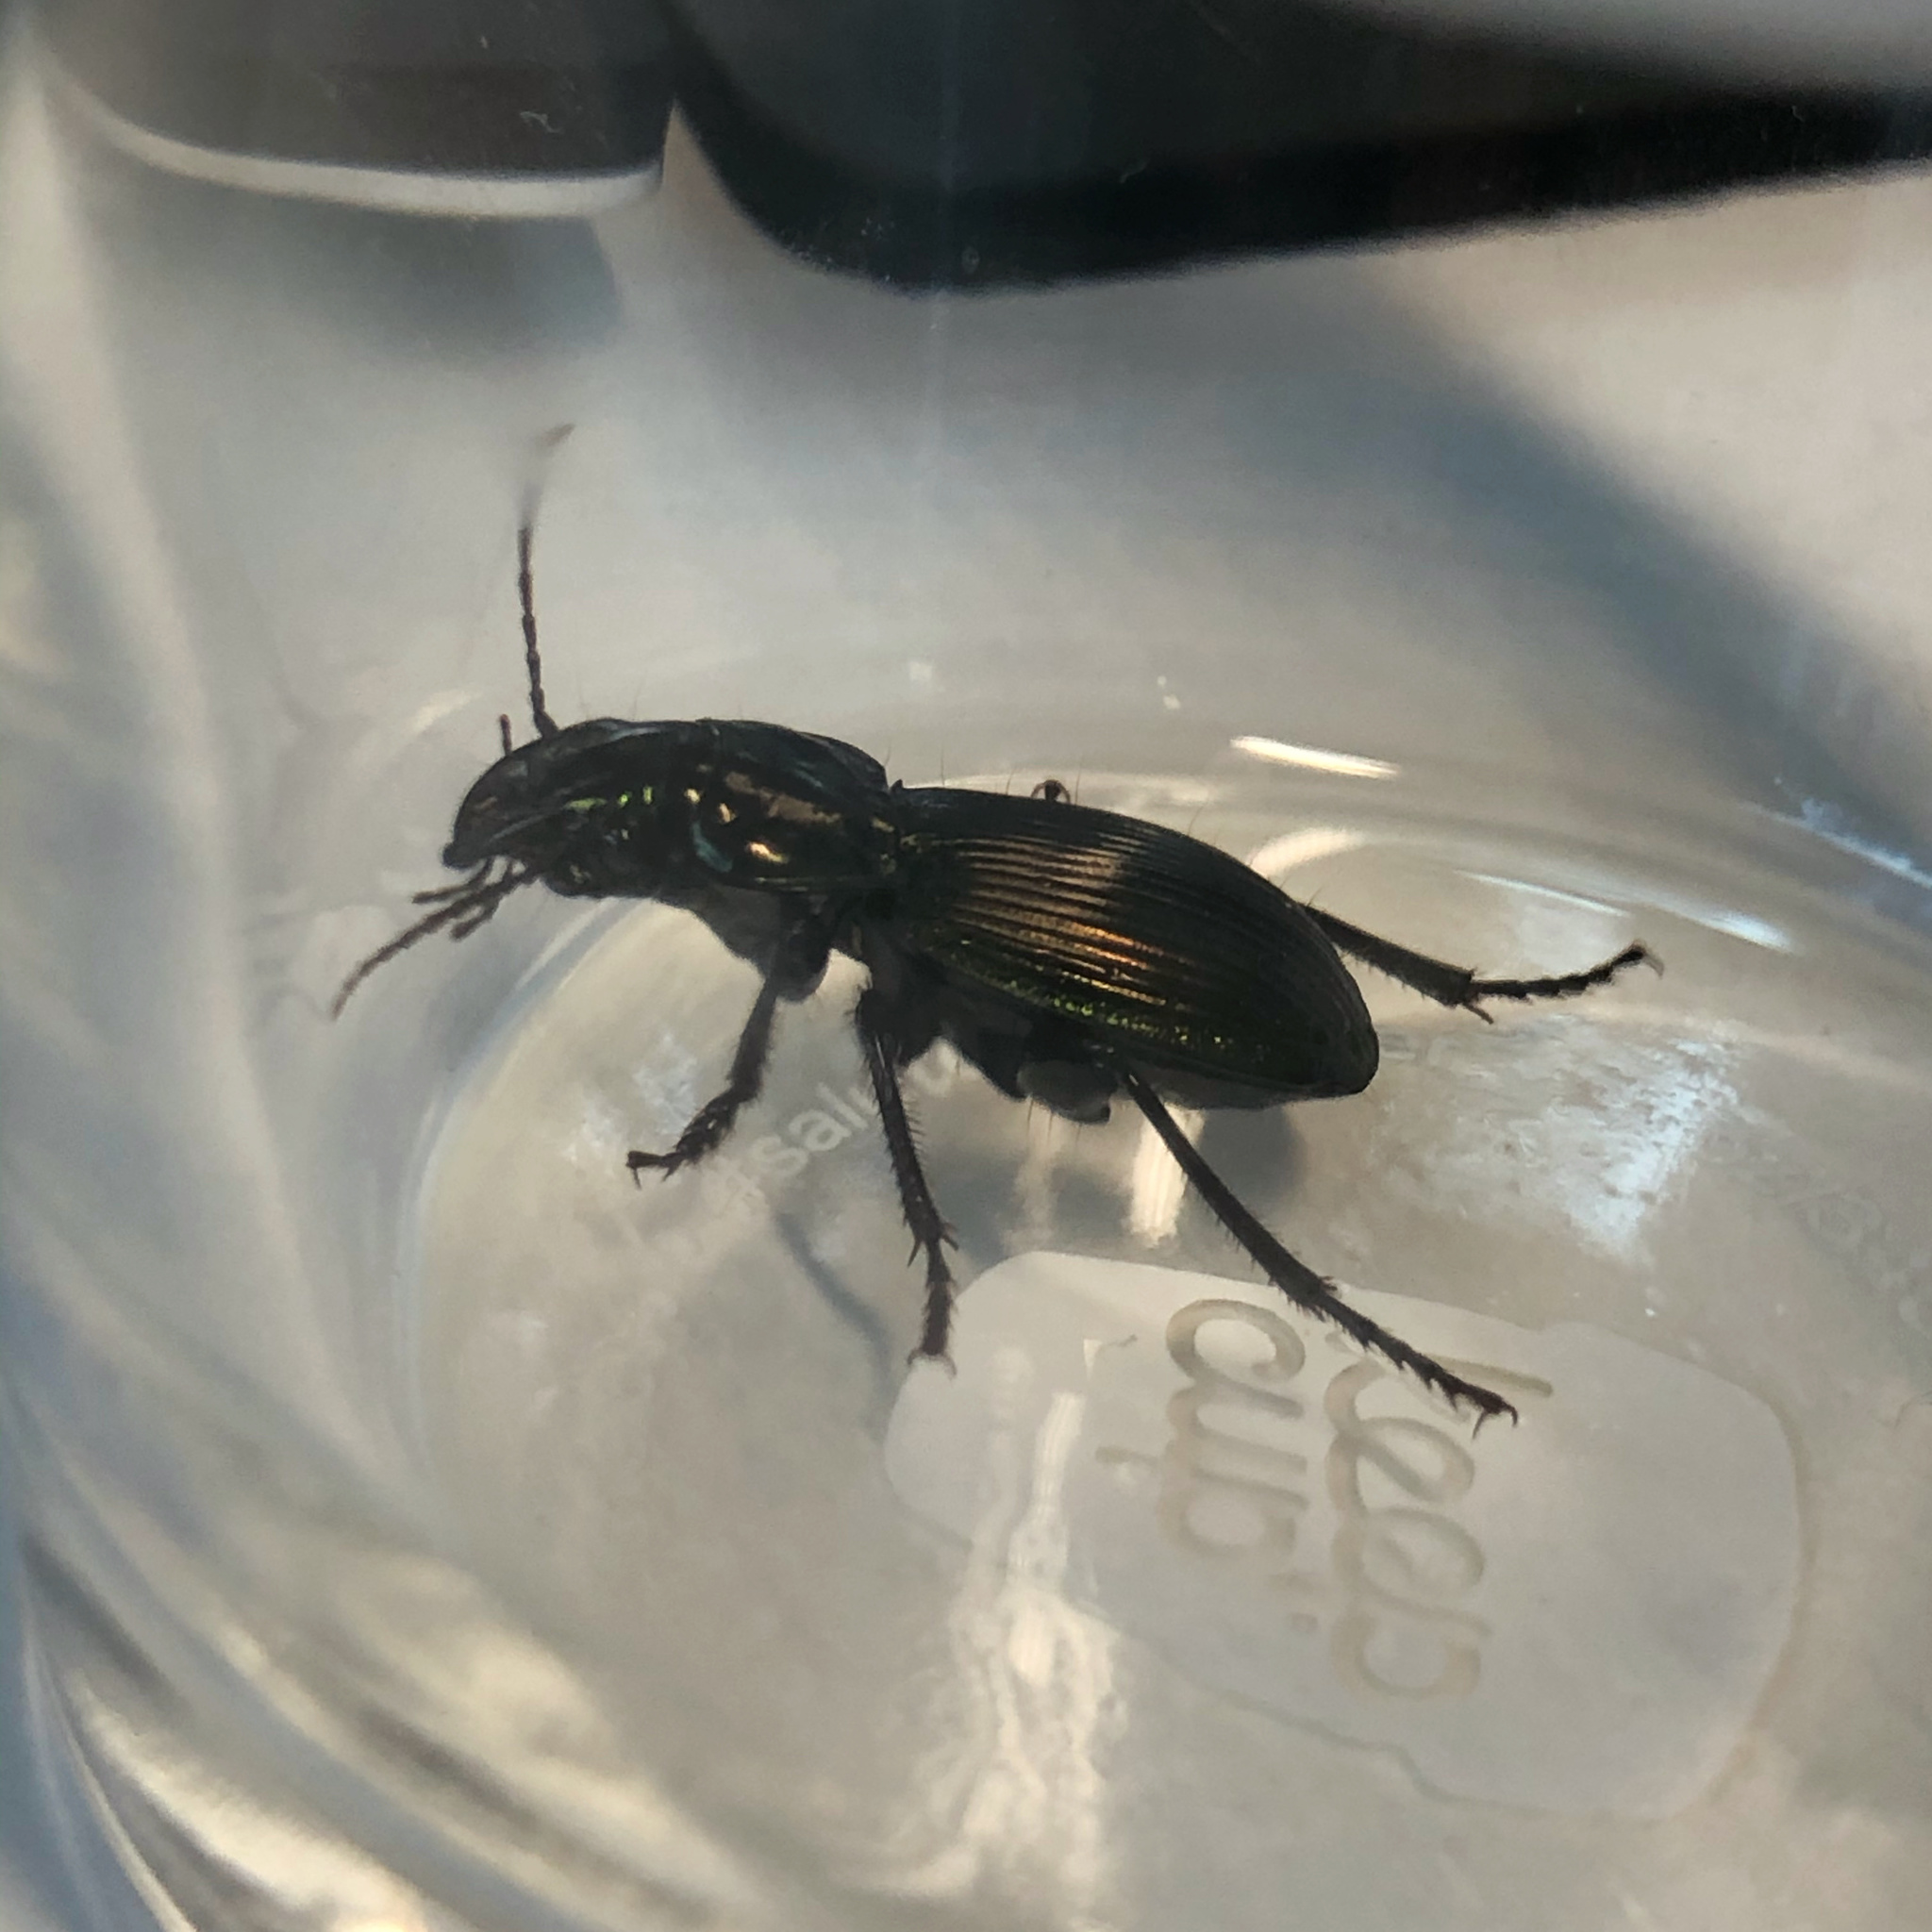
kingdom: Animalia
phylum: Arthropoda
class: Insecta
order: Coleoptera
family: Carabidae
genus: Megadromus
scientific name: Megadromus antarcticus
